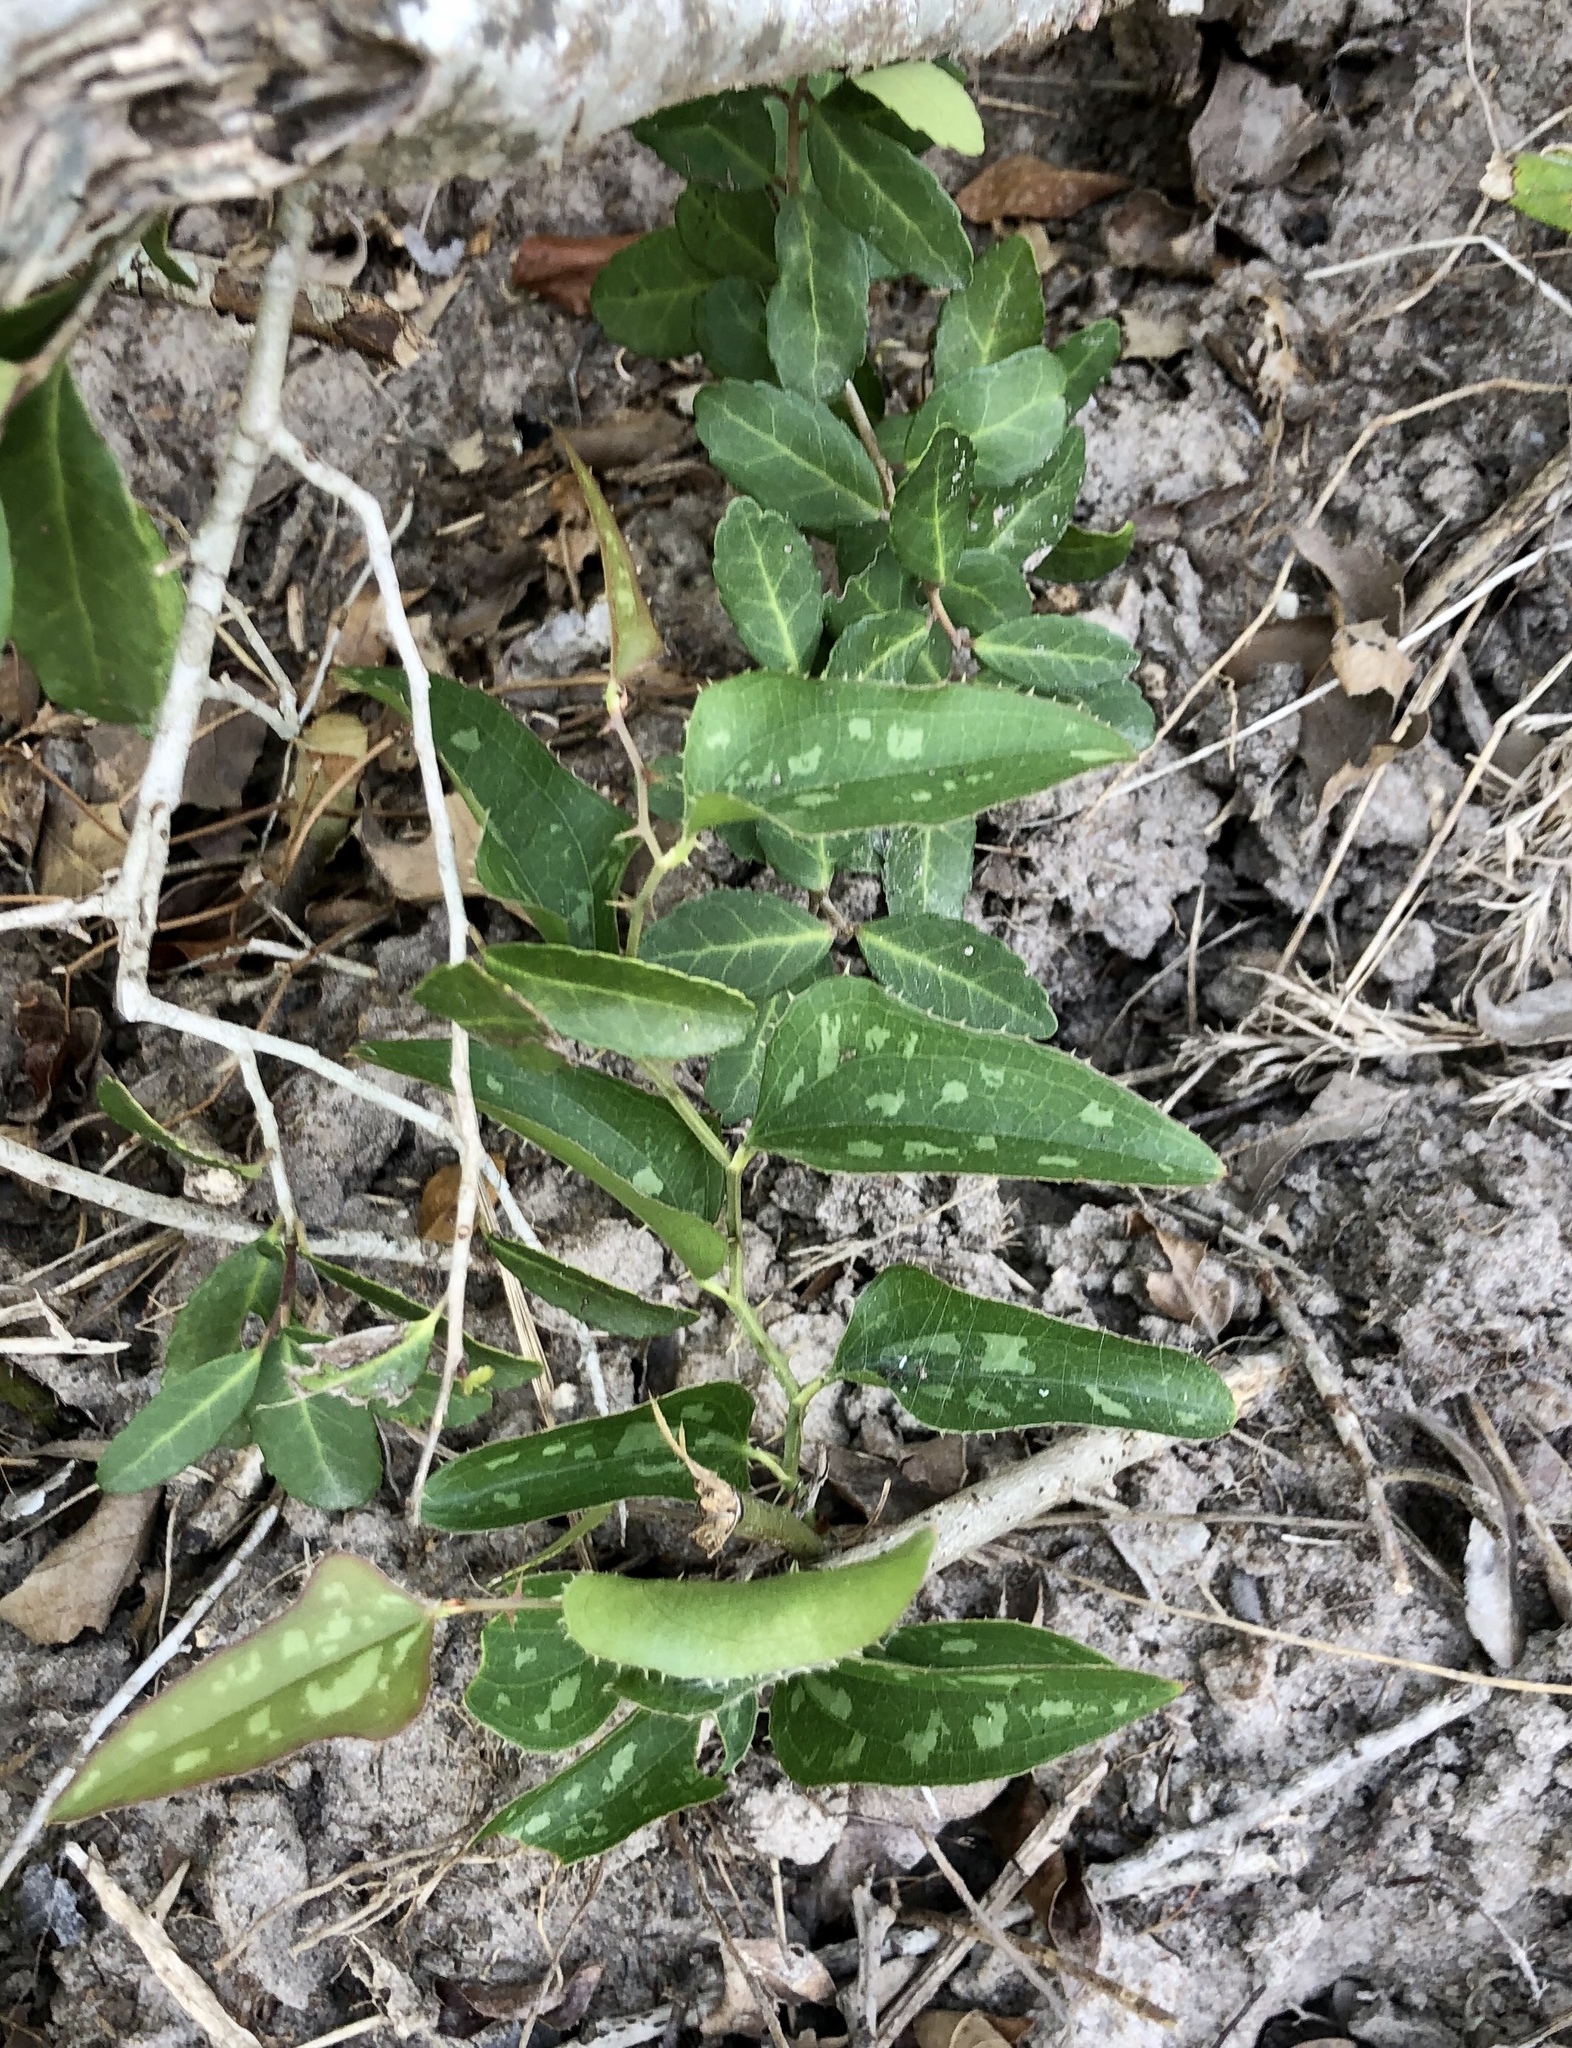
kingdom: Plantae
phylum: Tracheophyta
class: Liliopsida
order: Liliales
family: Smilacaceae
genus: Smilax
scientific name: Smilax bona-nox
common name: Catbrier
